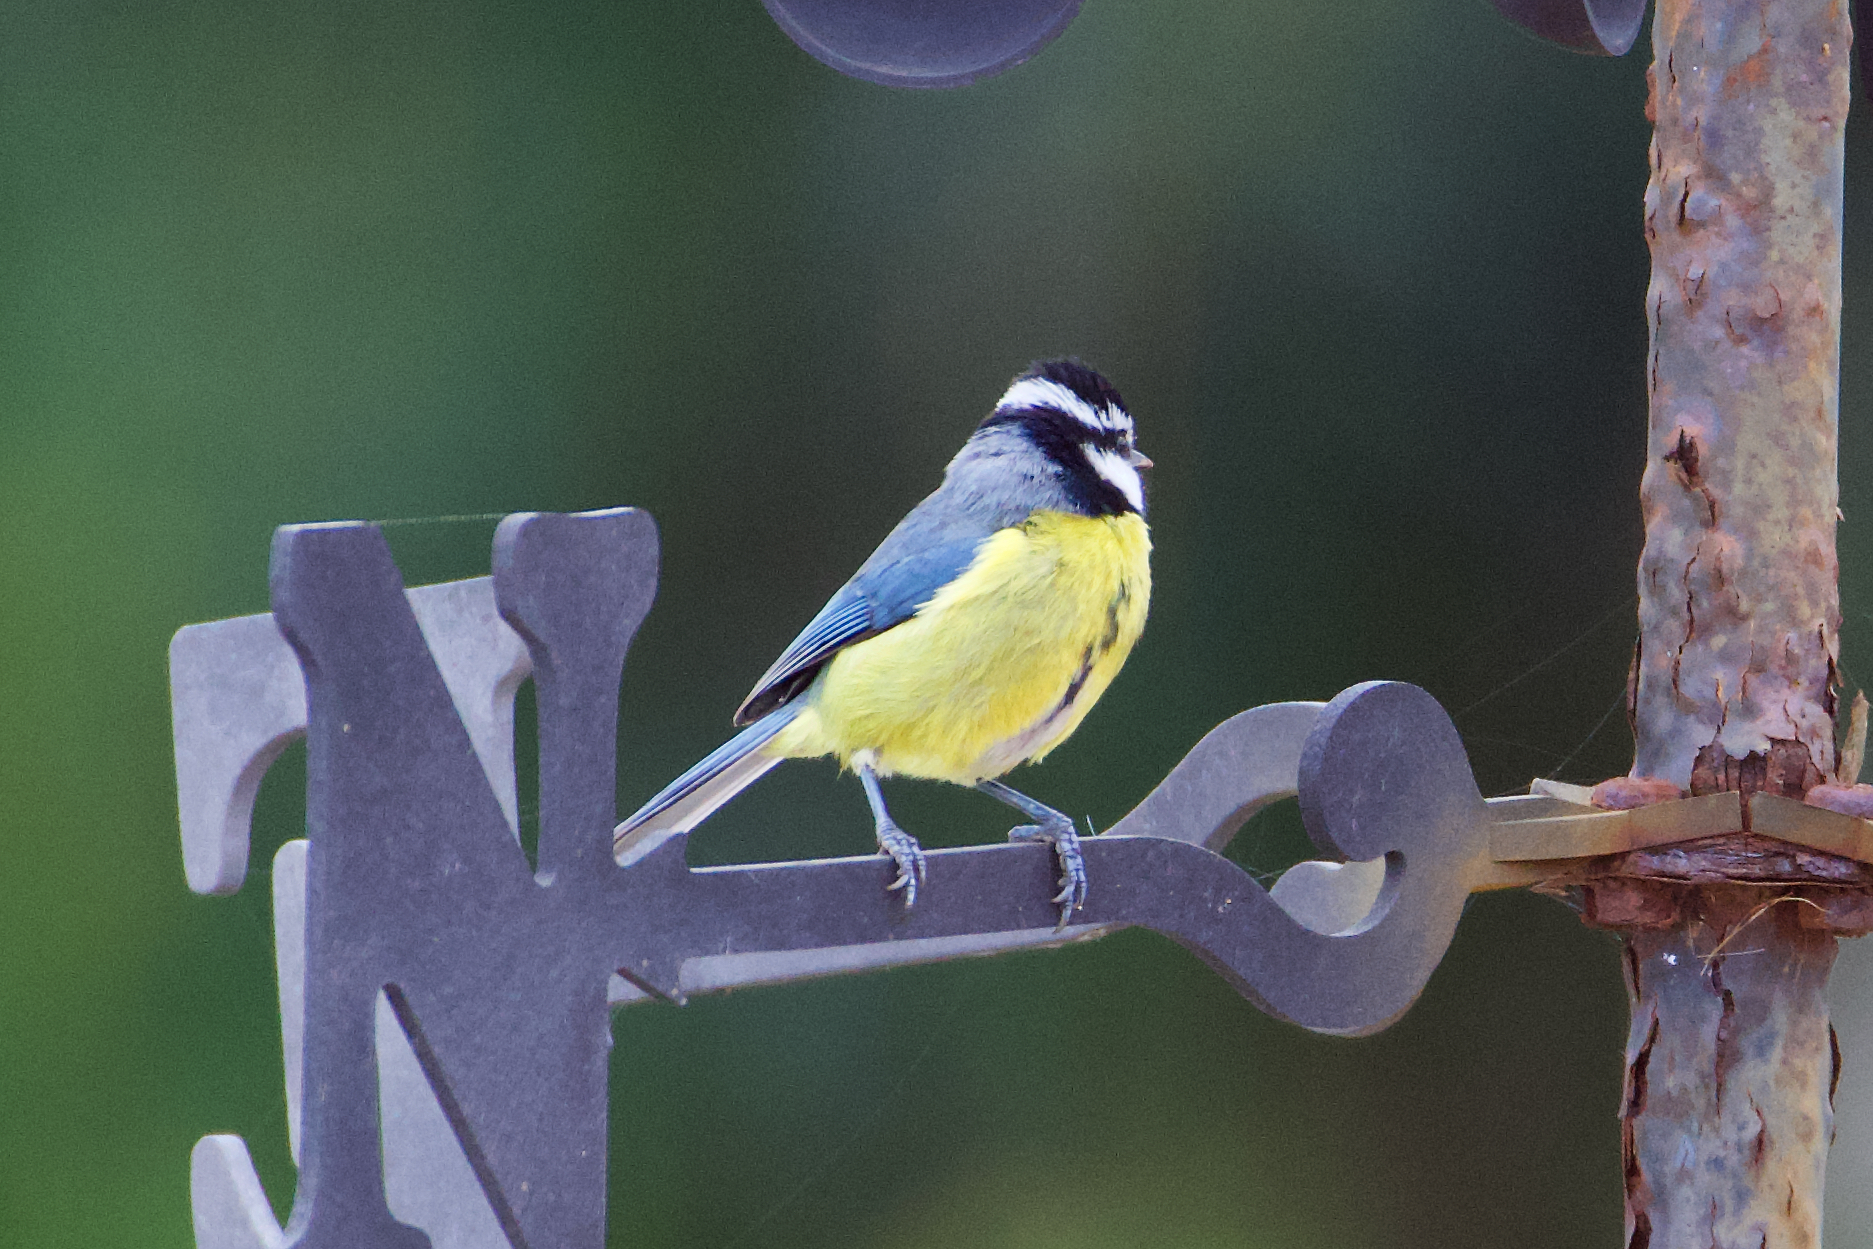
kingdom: Animalia
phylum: Chordata
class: Aves
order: Passeriformes
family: Paridae
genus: Cyanistes
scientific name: Cyanistes teneriffae
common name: African blue tit
